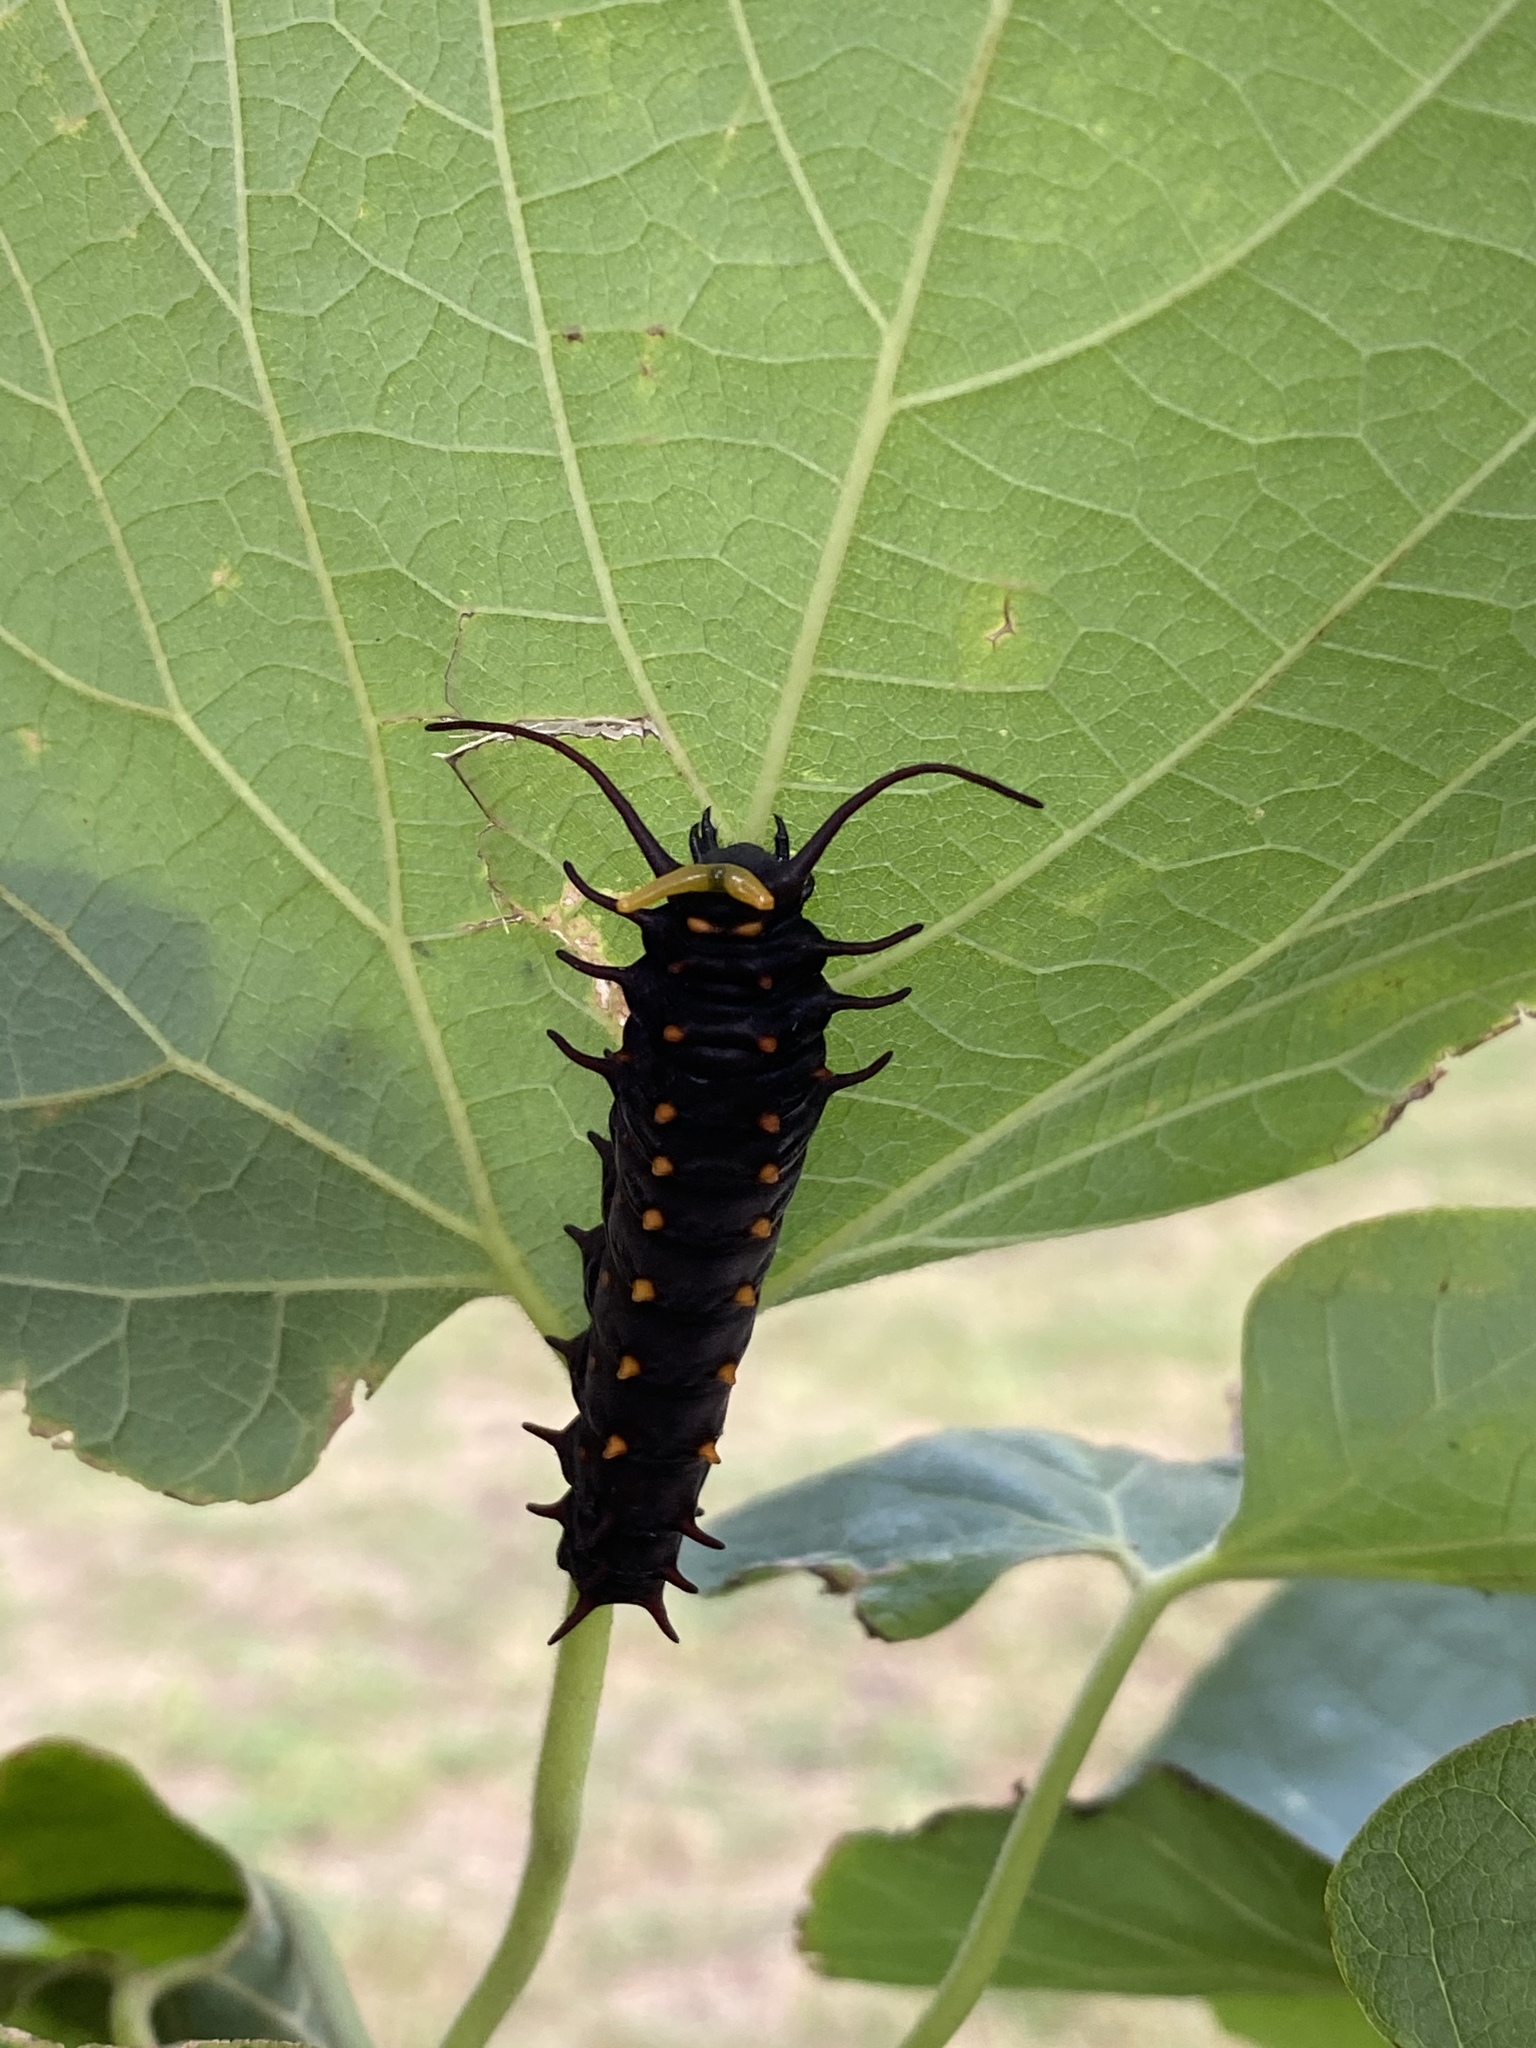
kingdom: Animalia
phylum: Arthropoda
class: Insecta
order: Lepidoptera
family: Papilionidae
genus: Battus
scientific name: Battus philenor
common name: Pipevine swallowtail
